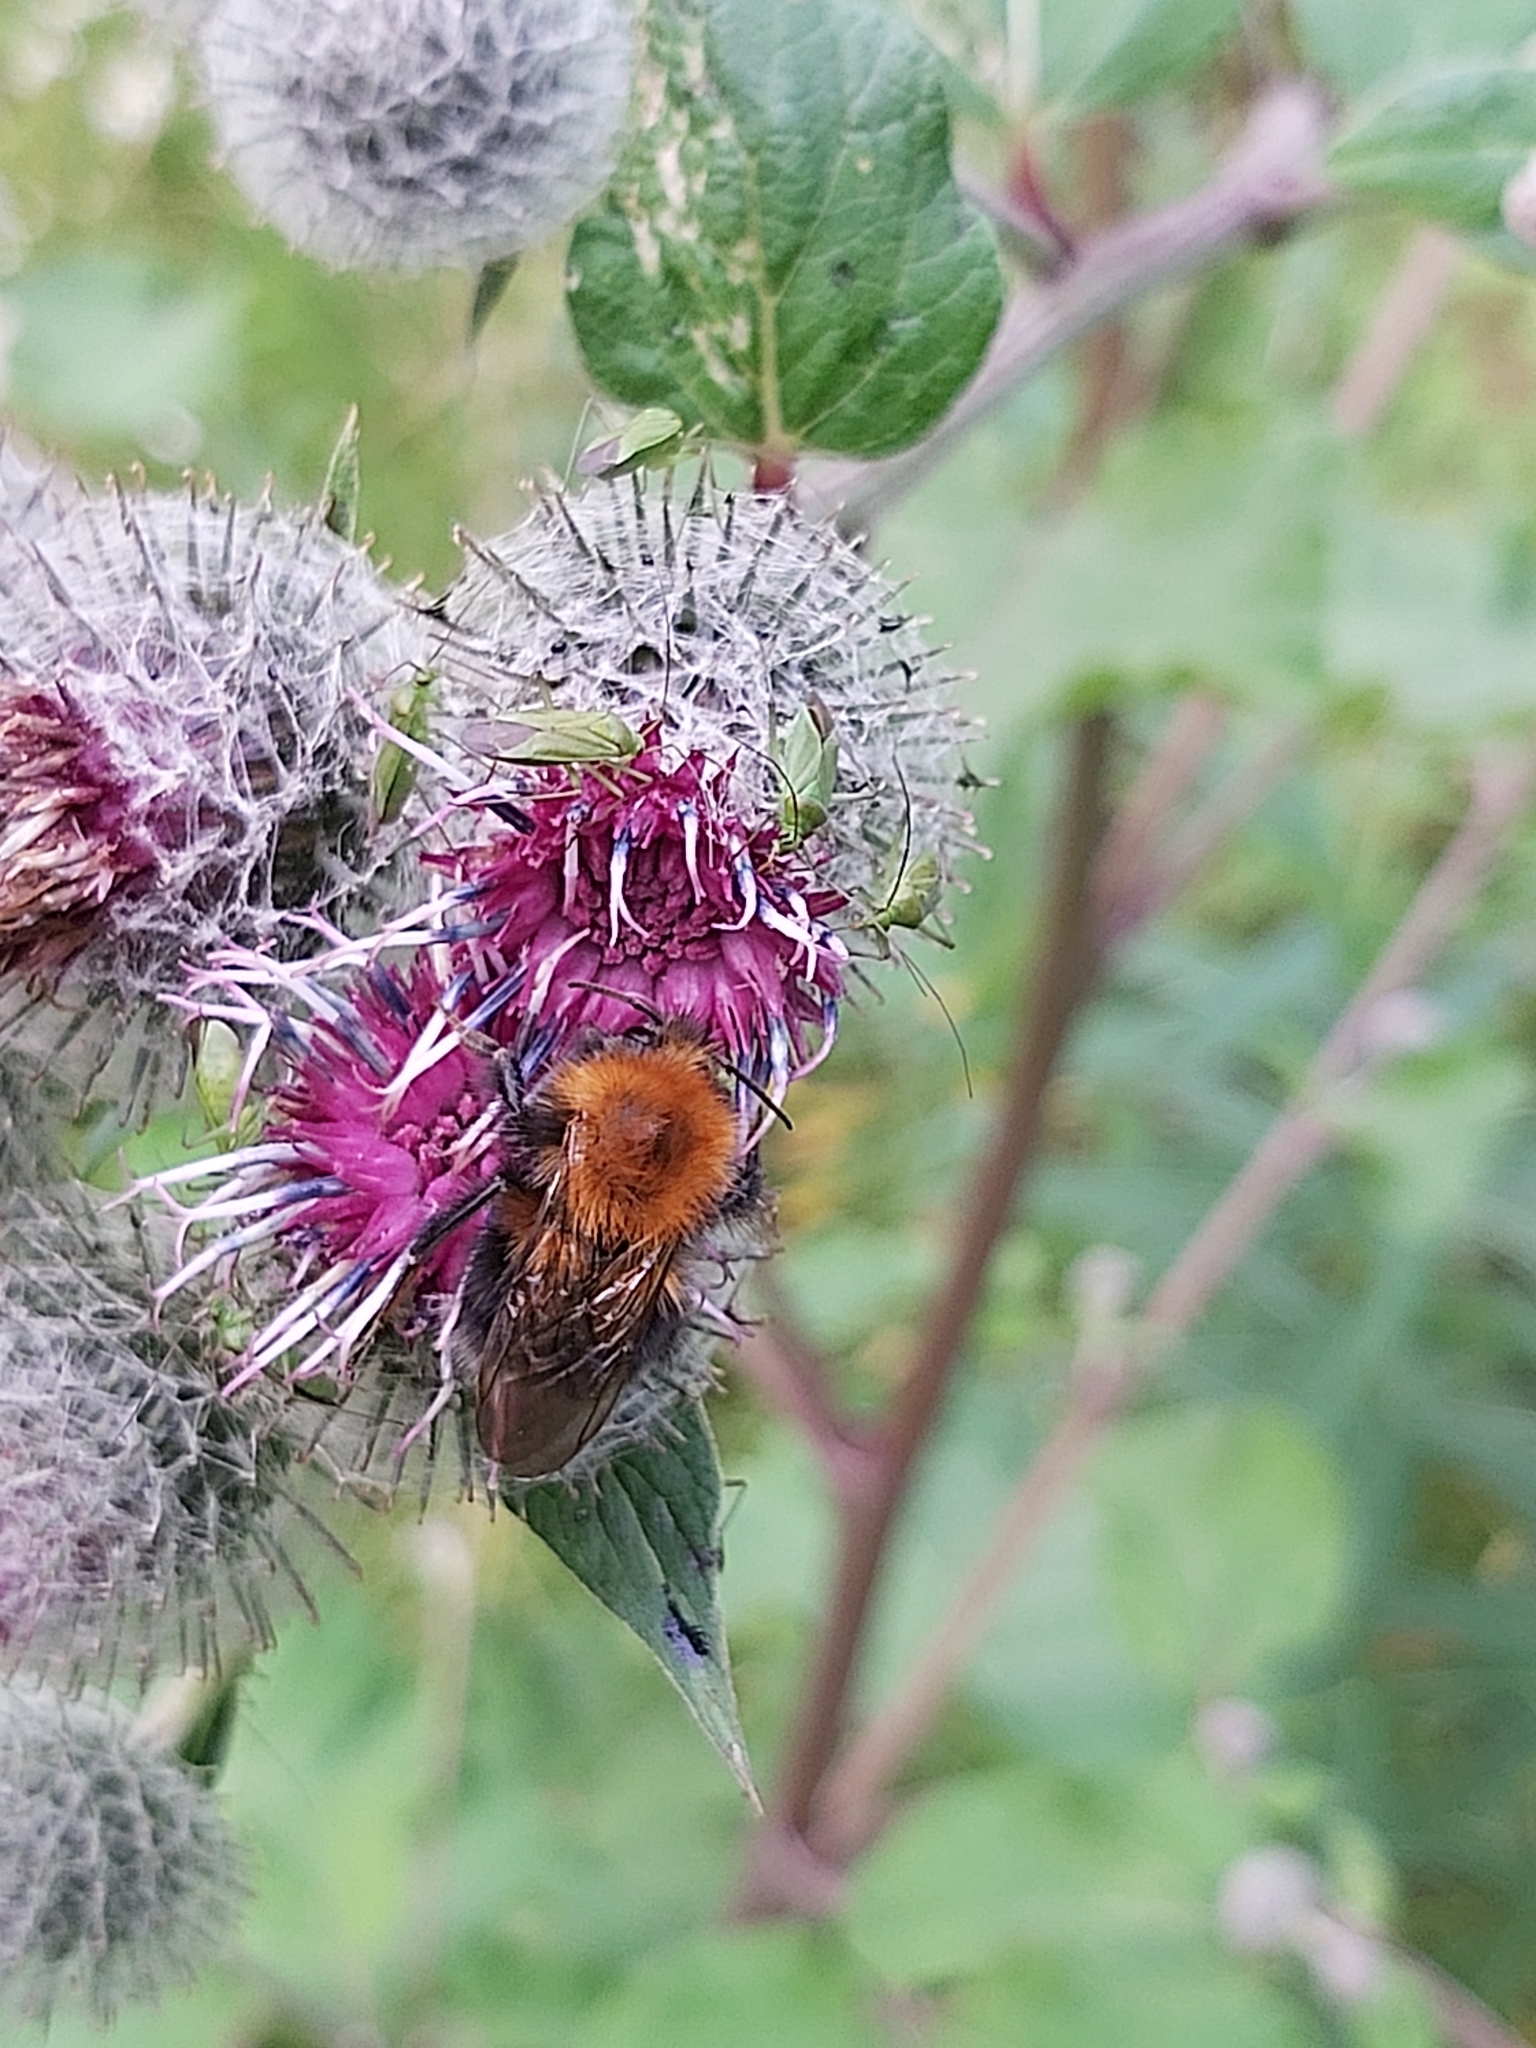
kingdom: Animalia
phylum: Arthropoda
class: Insecta
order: Hymenoptera
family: Apidae
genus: Bombus
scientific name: Bombus hypnorum
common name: New garden bumblebee
